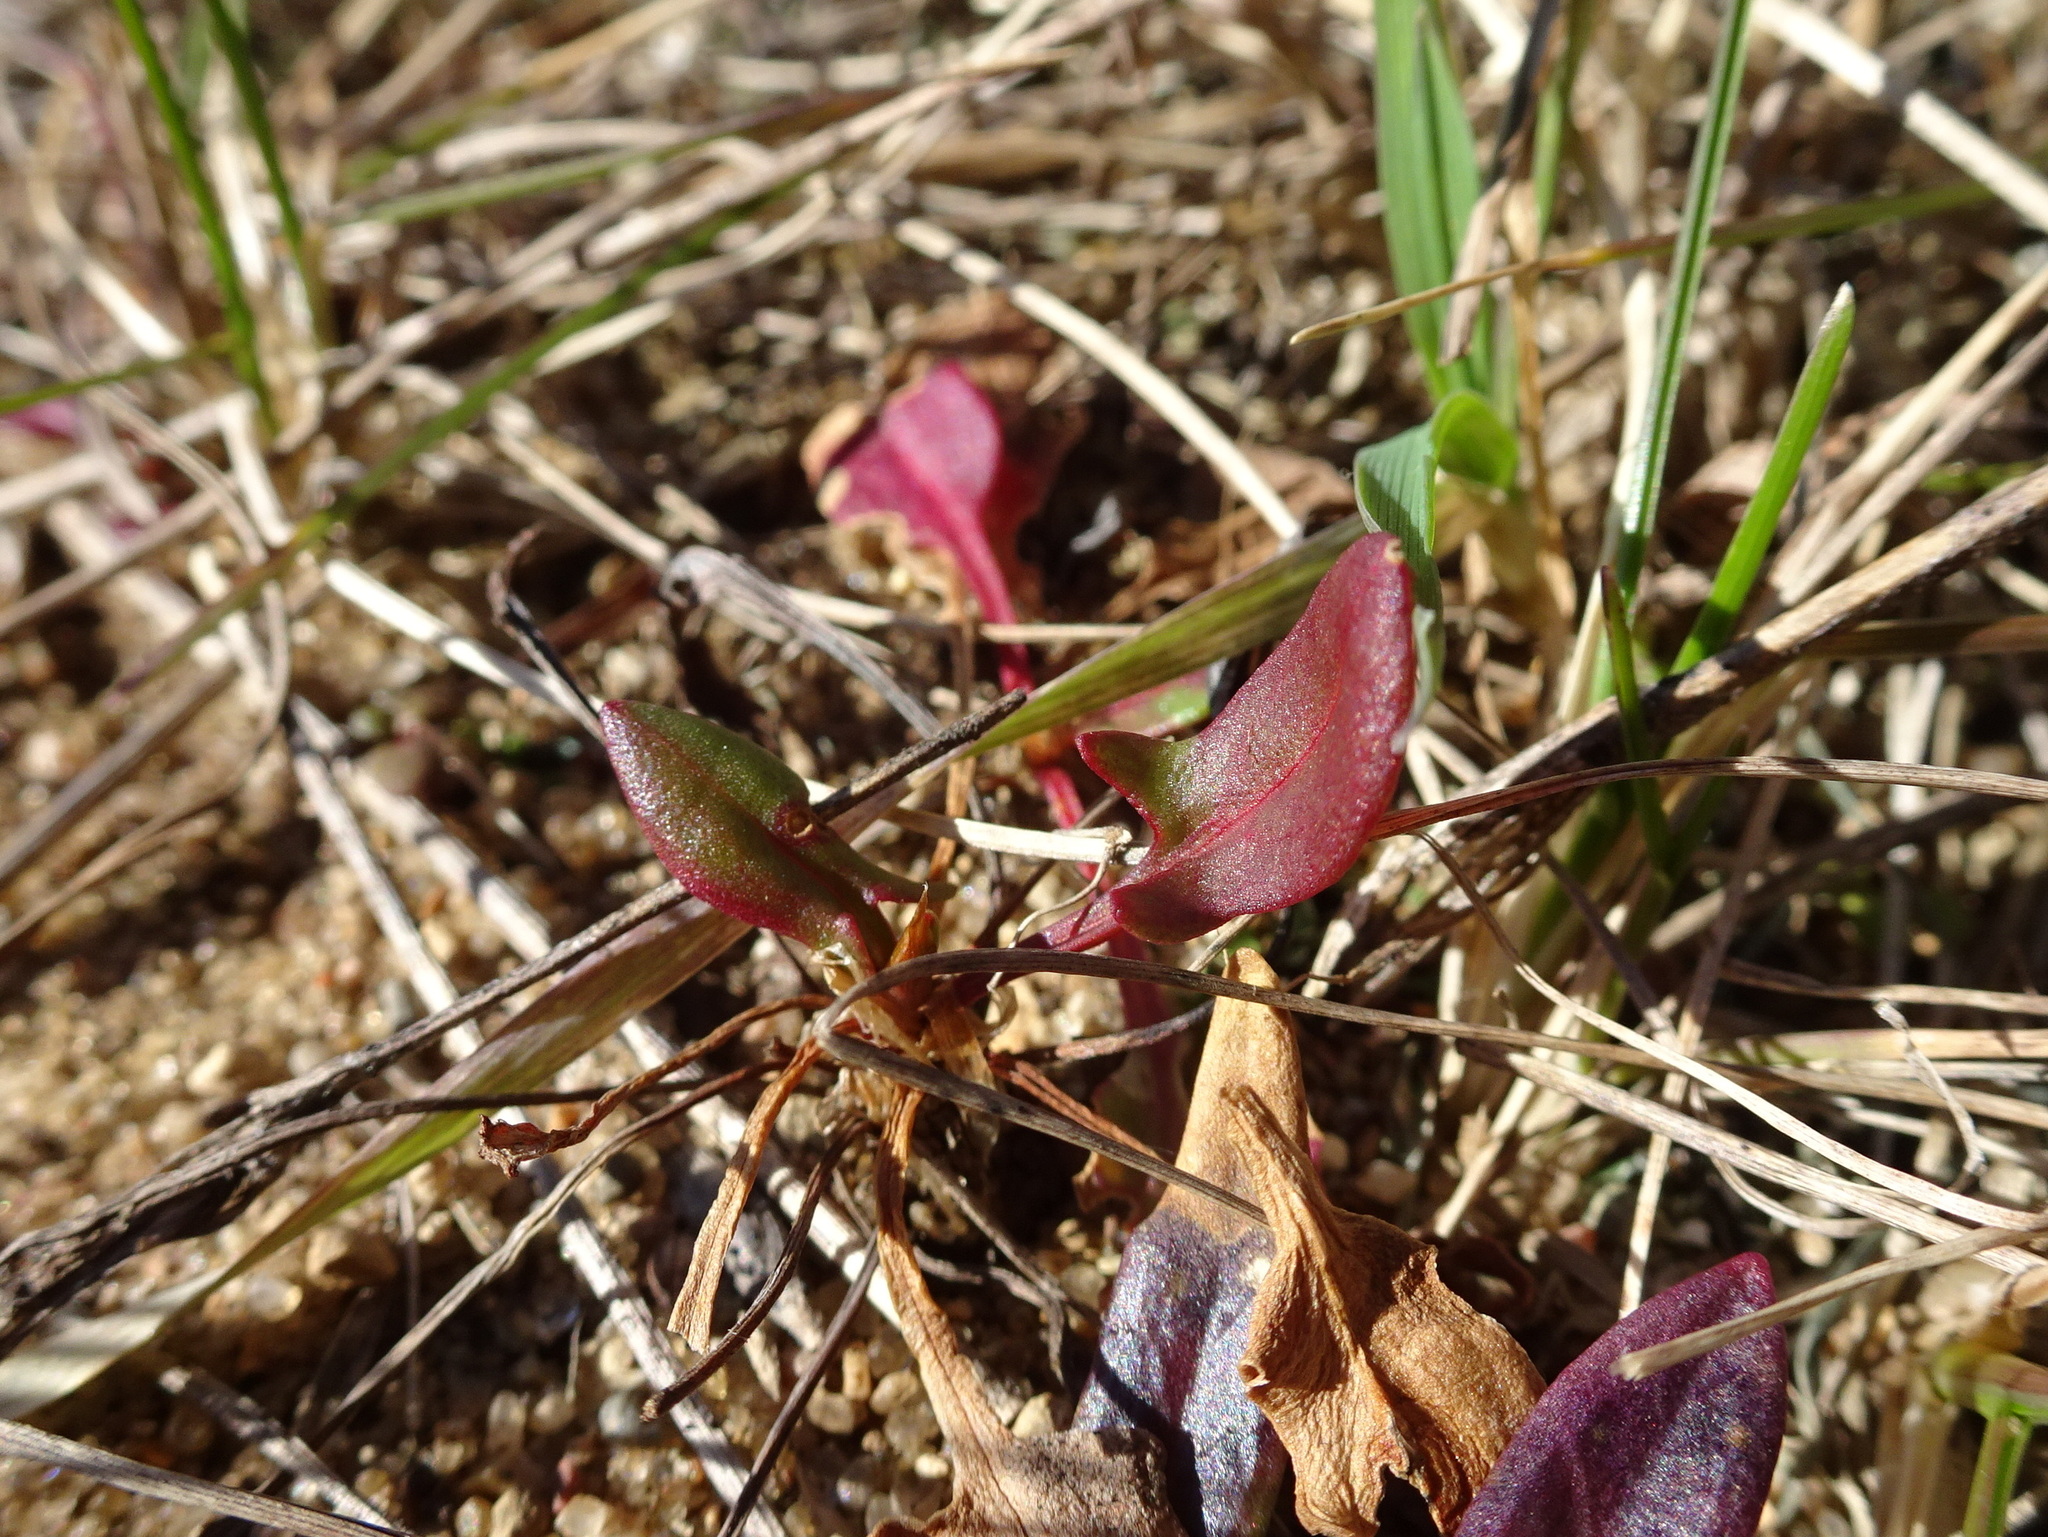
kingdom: Plantae
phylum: Tracheophyta
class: Magnoliopsida
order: Caryophyllales
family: Polygonaceae
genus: Rumex
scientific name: Rumex acetosella
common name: Common sheep sorrel
